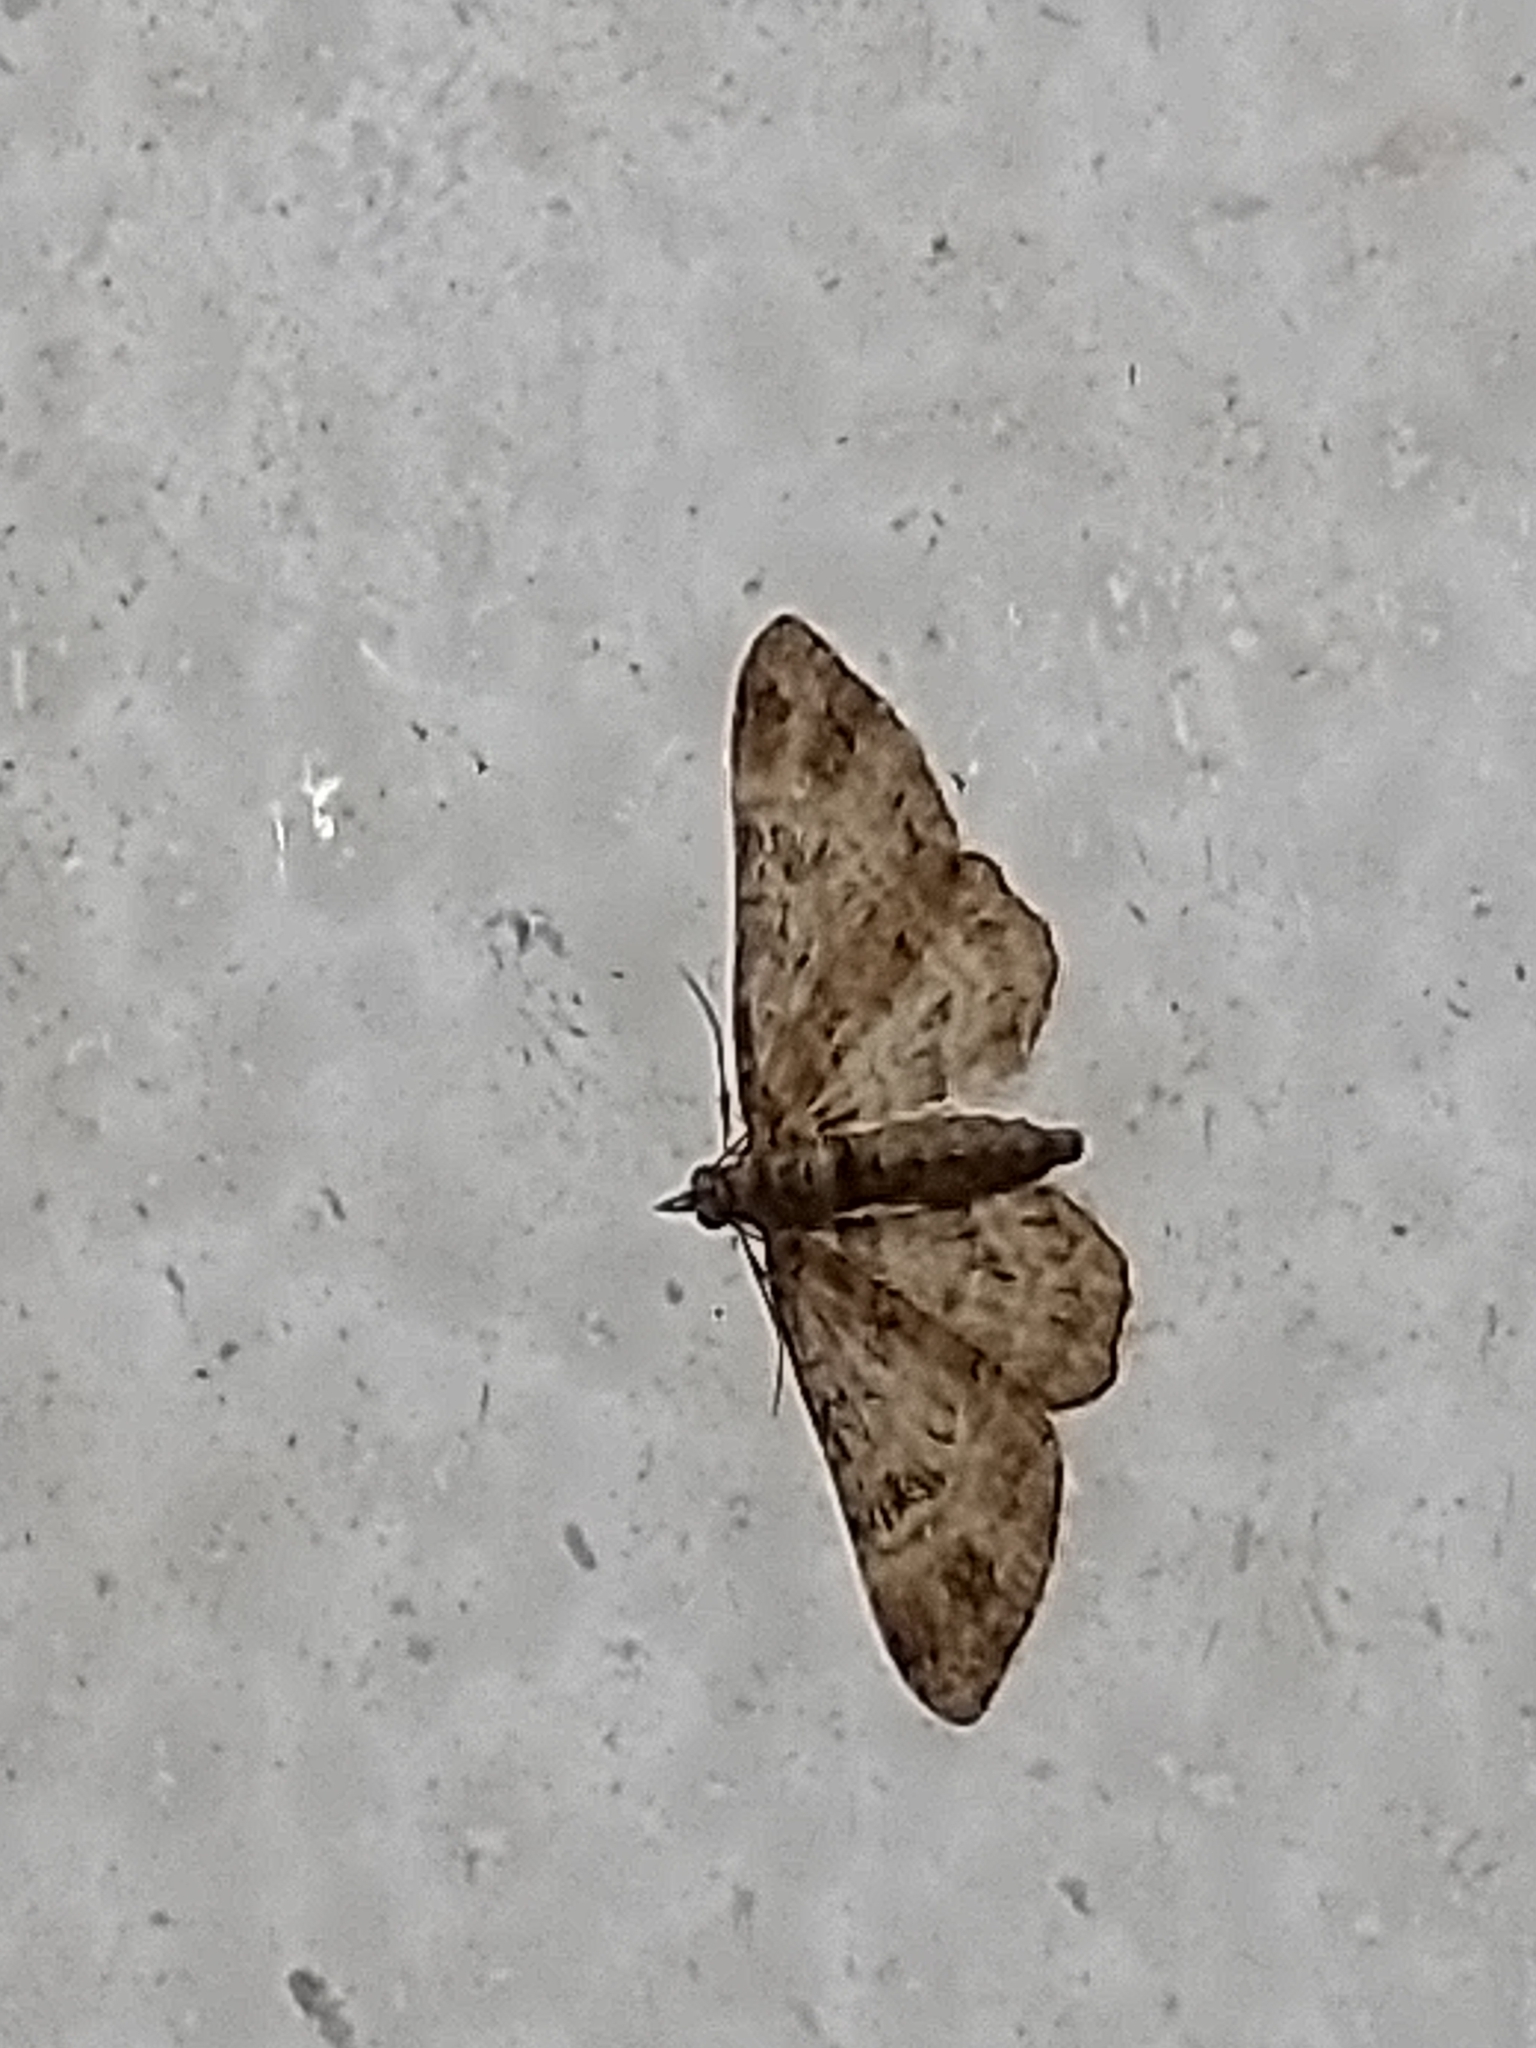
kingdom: Animalia
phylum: Arthropoda
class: Insecta
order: Lepidoptera
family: Geometridae
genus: Gymnoscelis
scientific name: Gymnoscelis rufifasciata
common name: Double-striped pug
